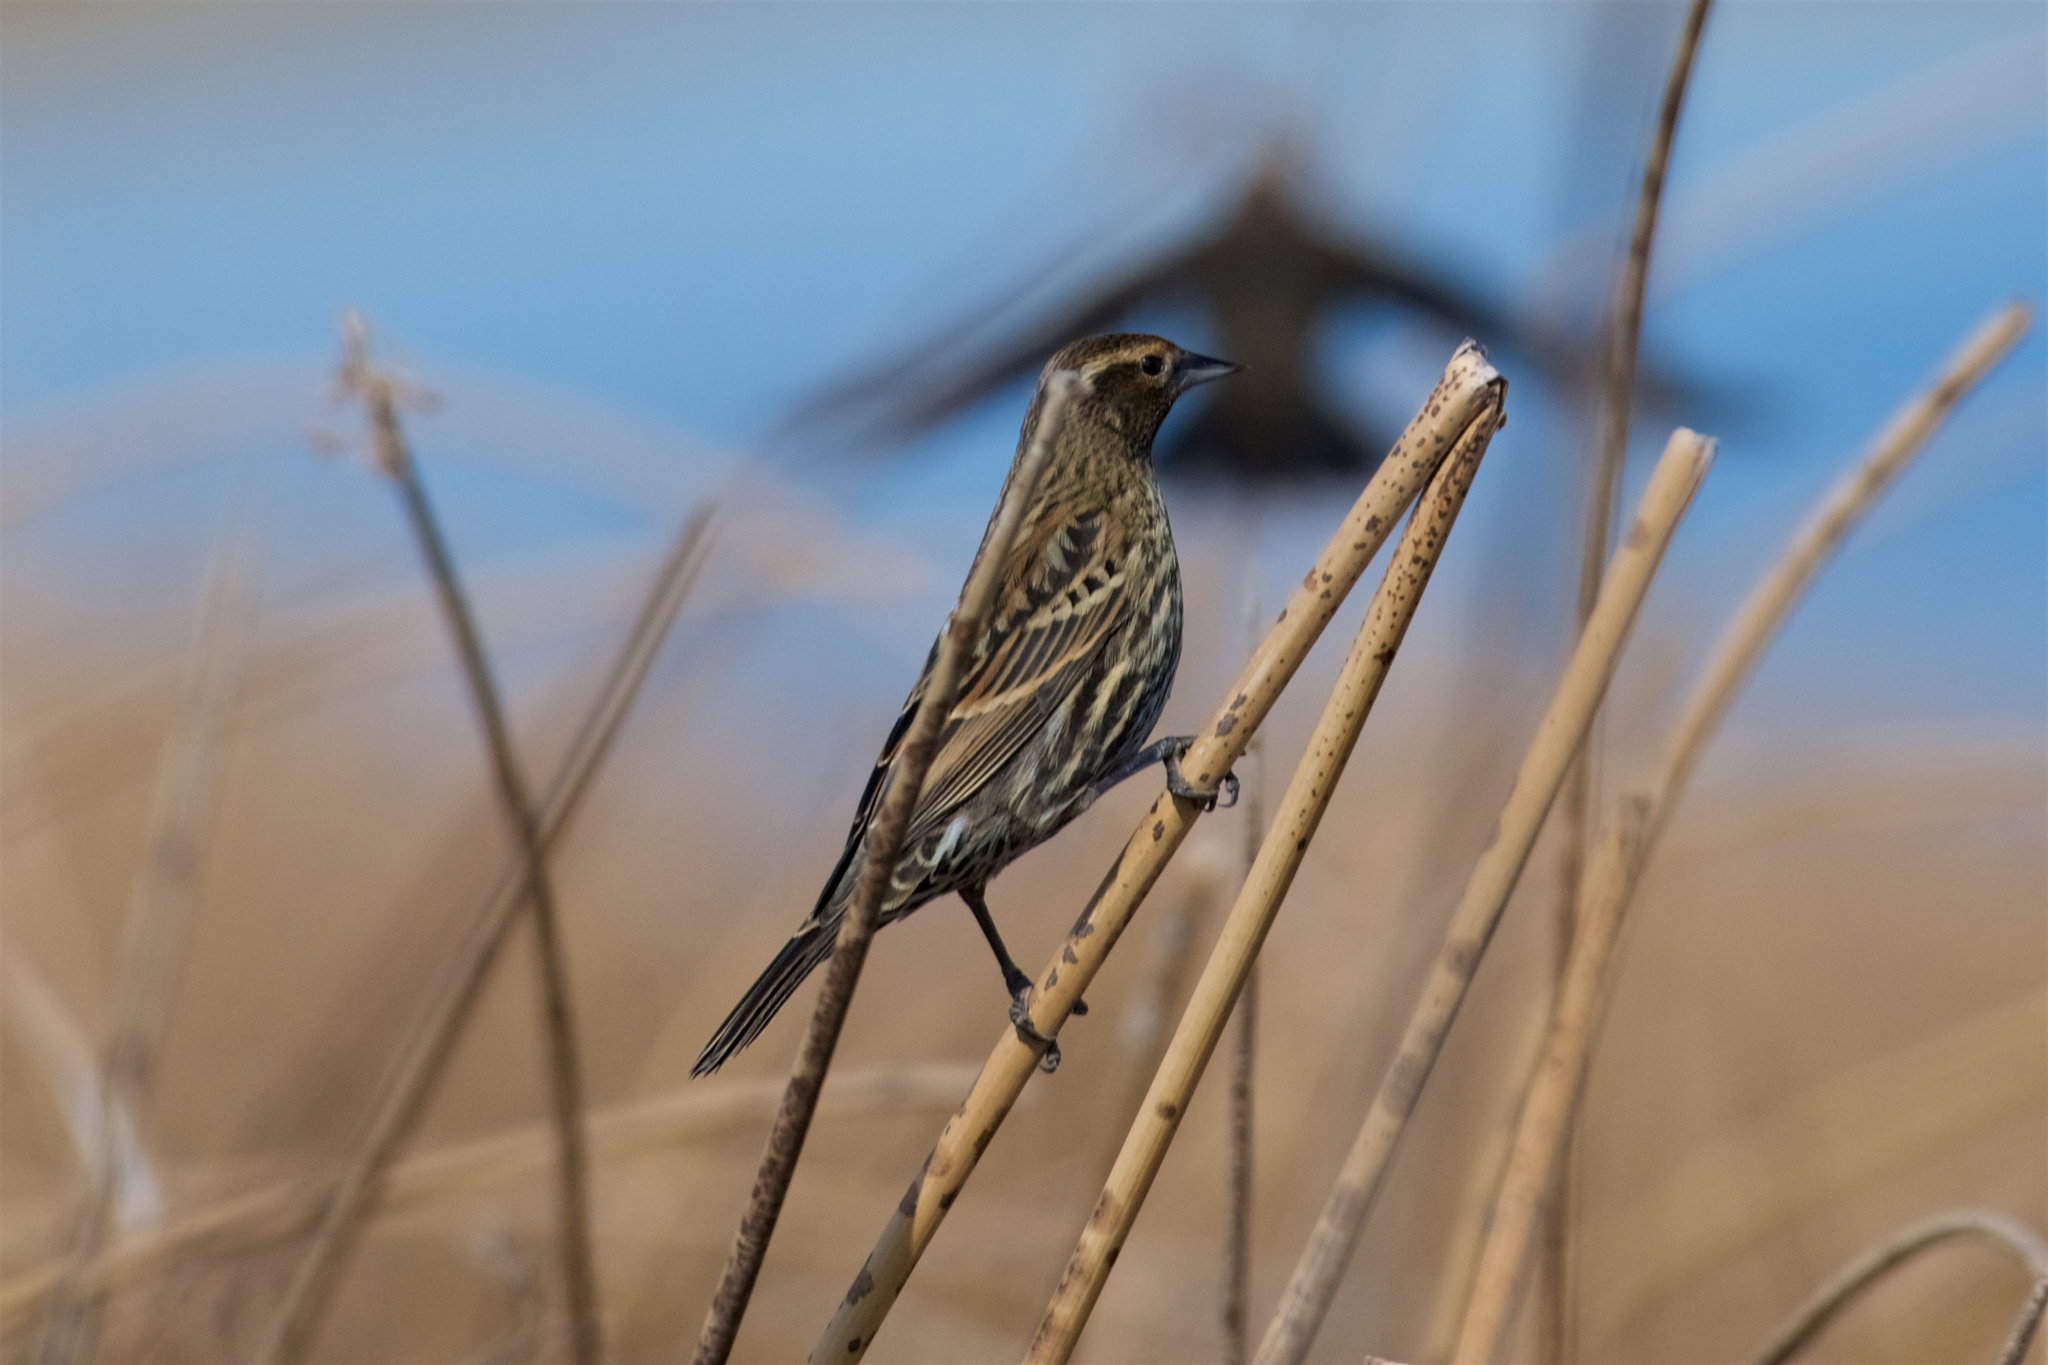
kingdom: Animalia
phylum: Chordata
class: Aves
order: Passeriformes
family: Icteridae
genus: Agelaius
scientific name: Agelaius phoeniceus
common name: Red-winged blackbird
